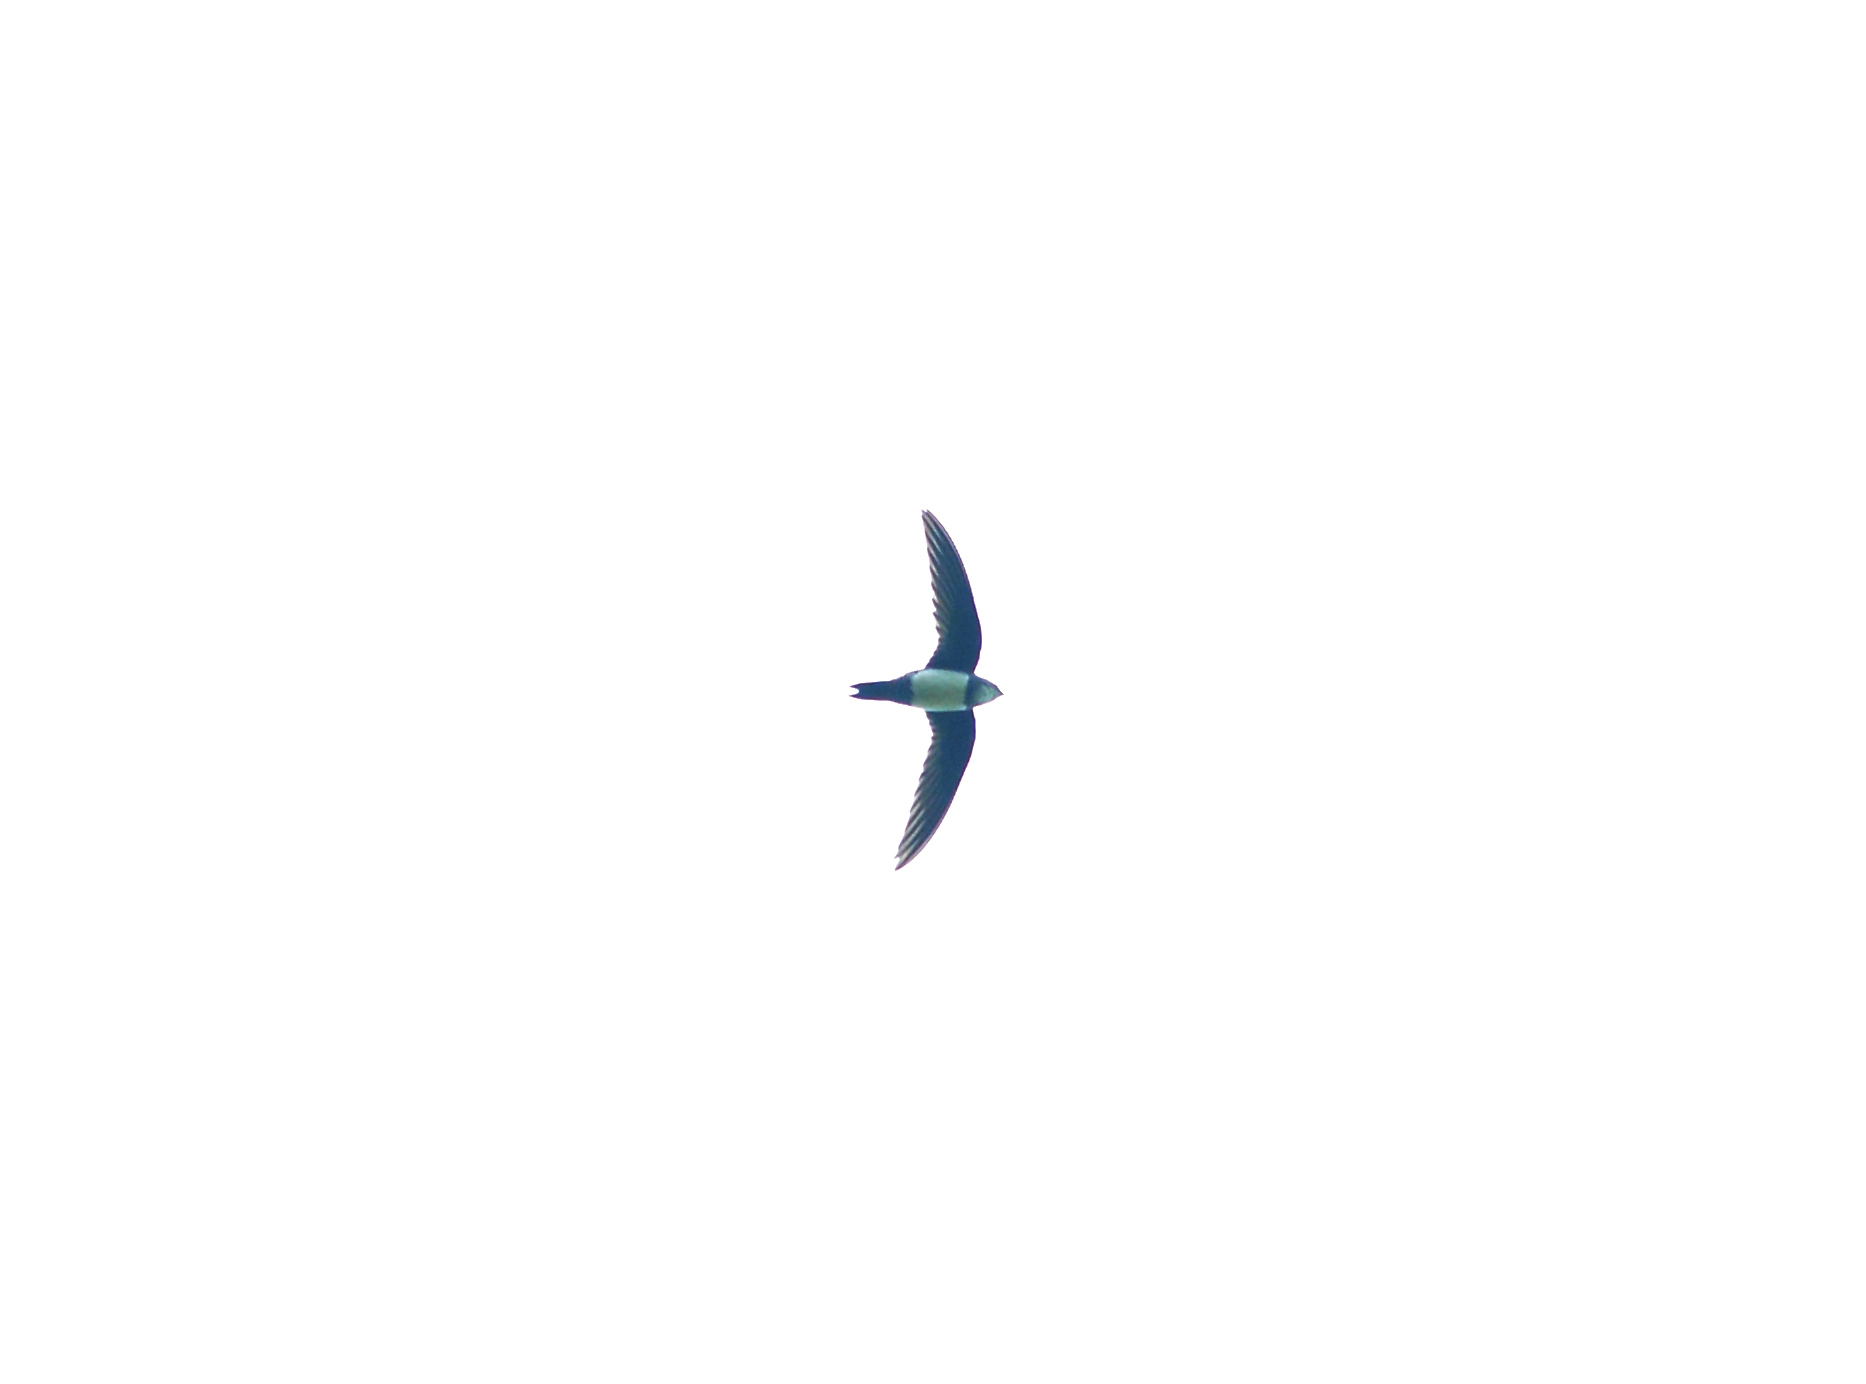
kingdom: Animalia
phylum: Chordata
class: Aves
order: Apodiformes
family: Apodidae
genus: Tachymarptis
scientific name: Tachymarptis melba
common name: Alpine swift
